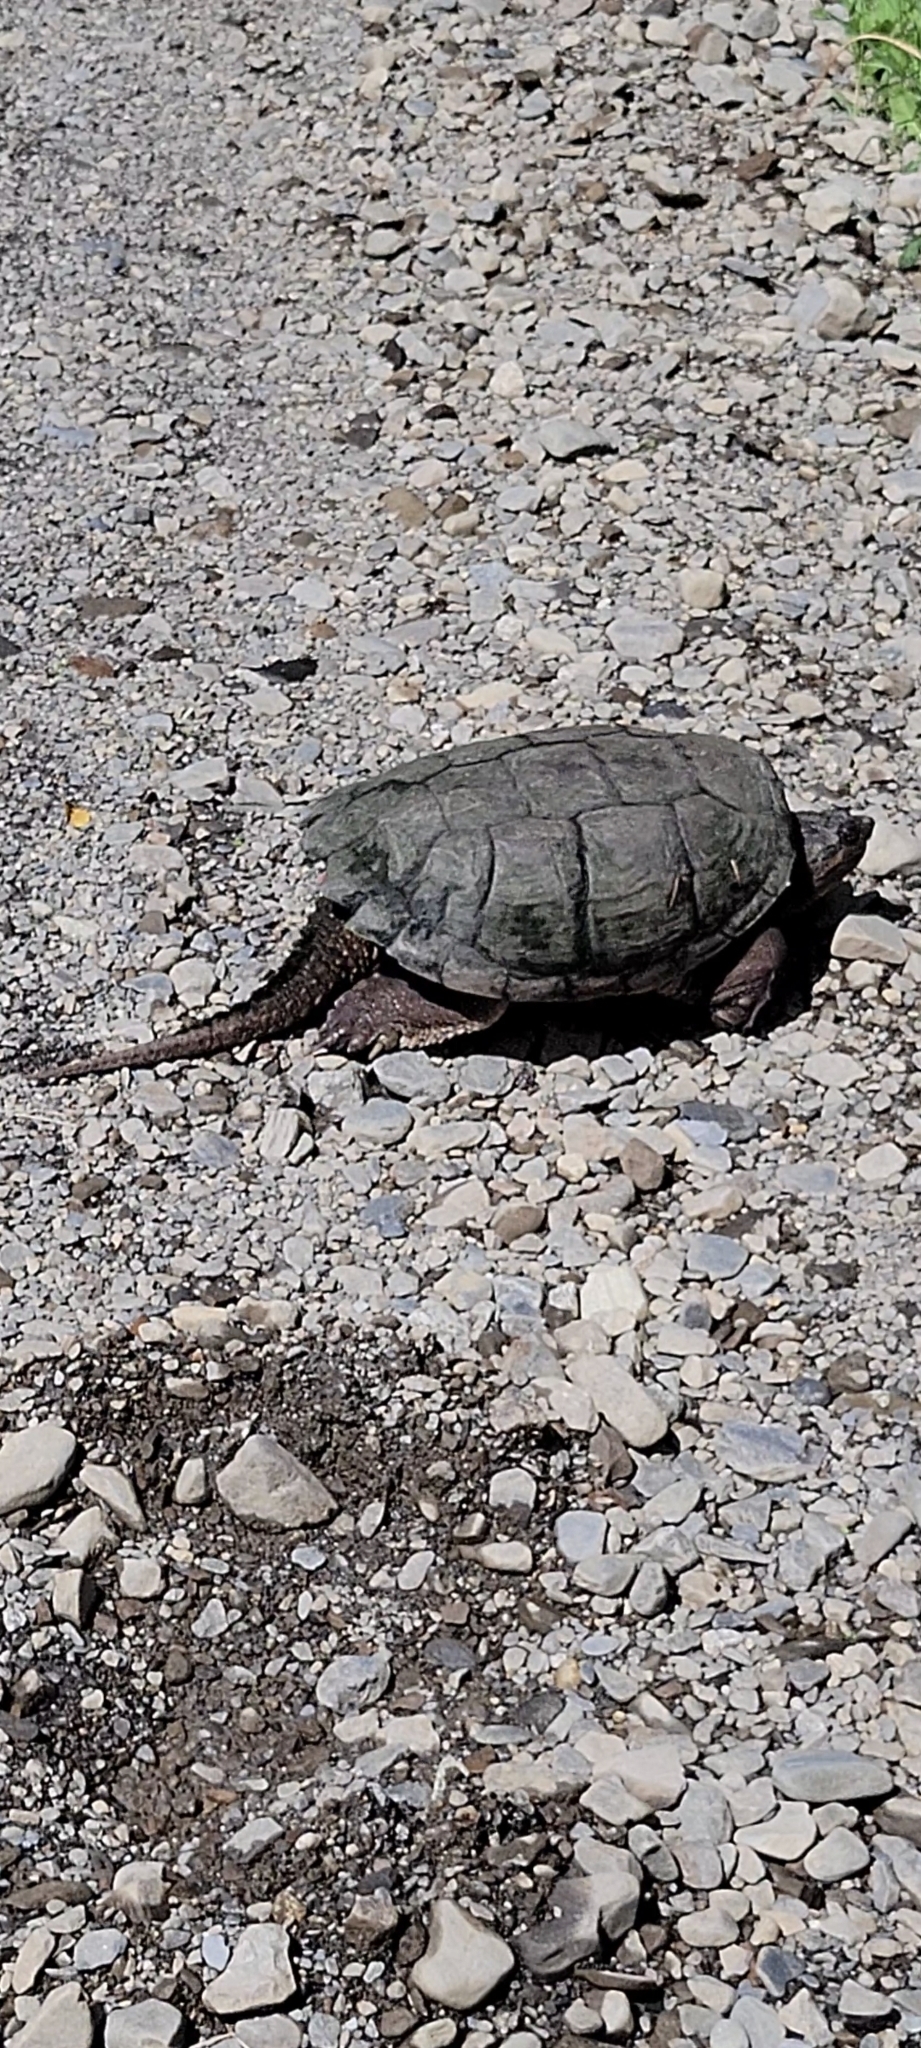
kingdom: Animalia
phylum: Chordata
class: Testudines
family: Chelydridae
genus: Chelydra
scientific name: Chelydra serpentina
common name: Common snapping turtle
